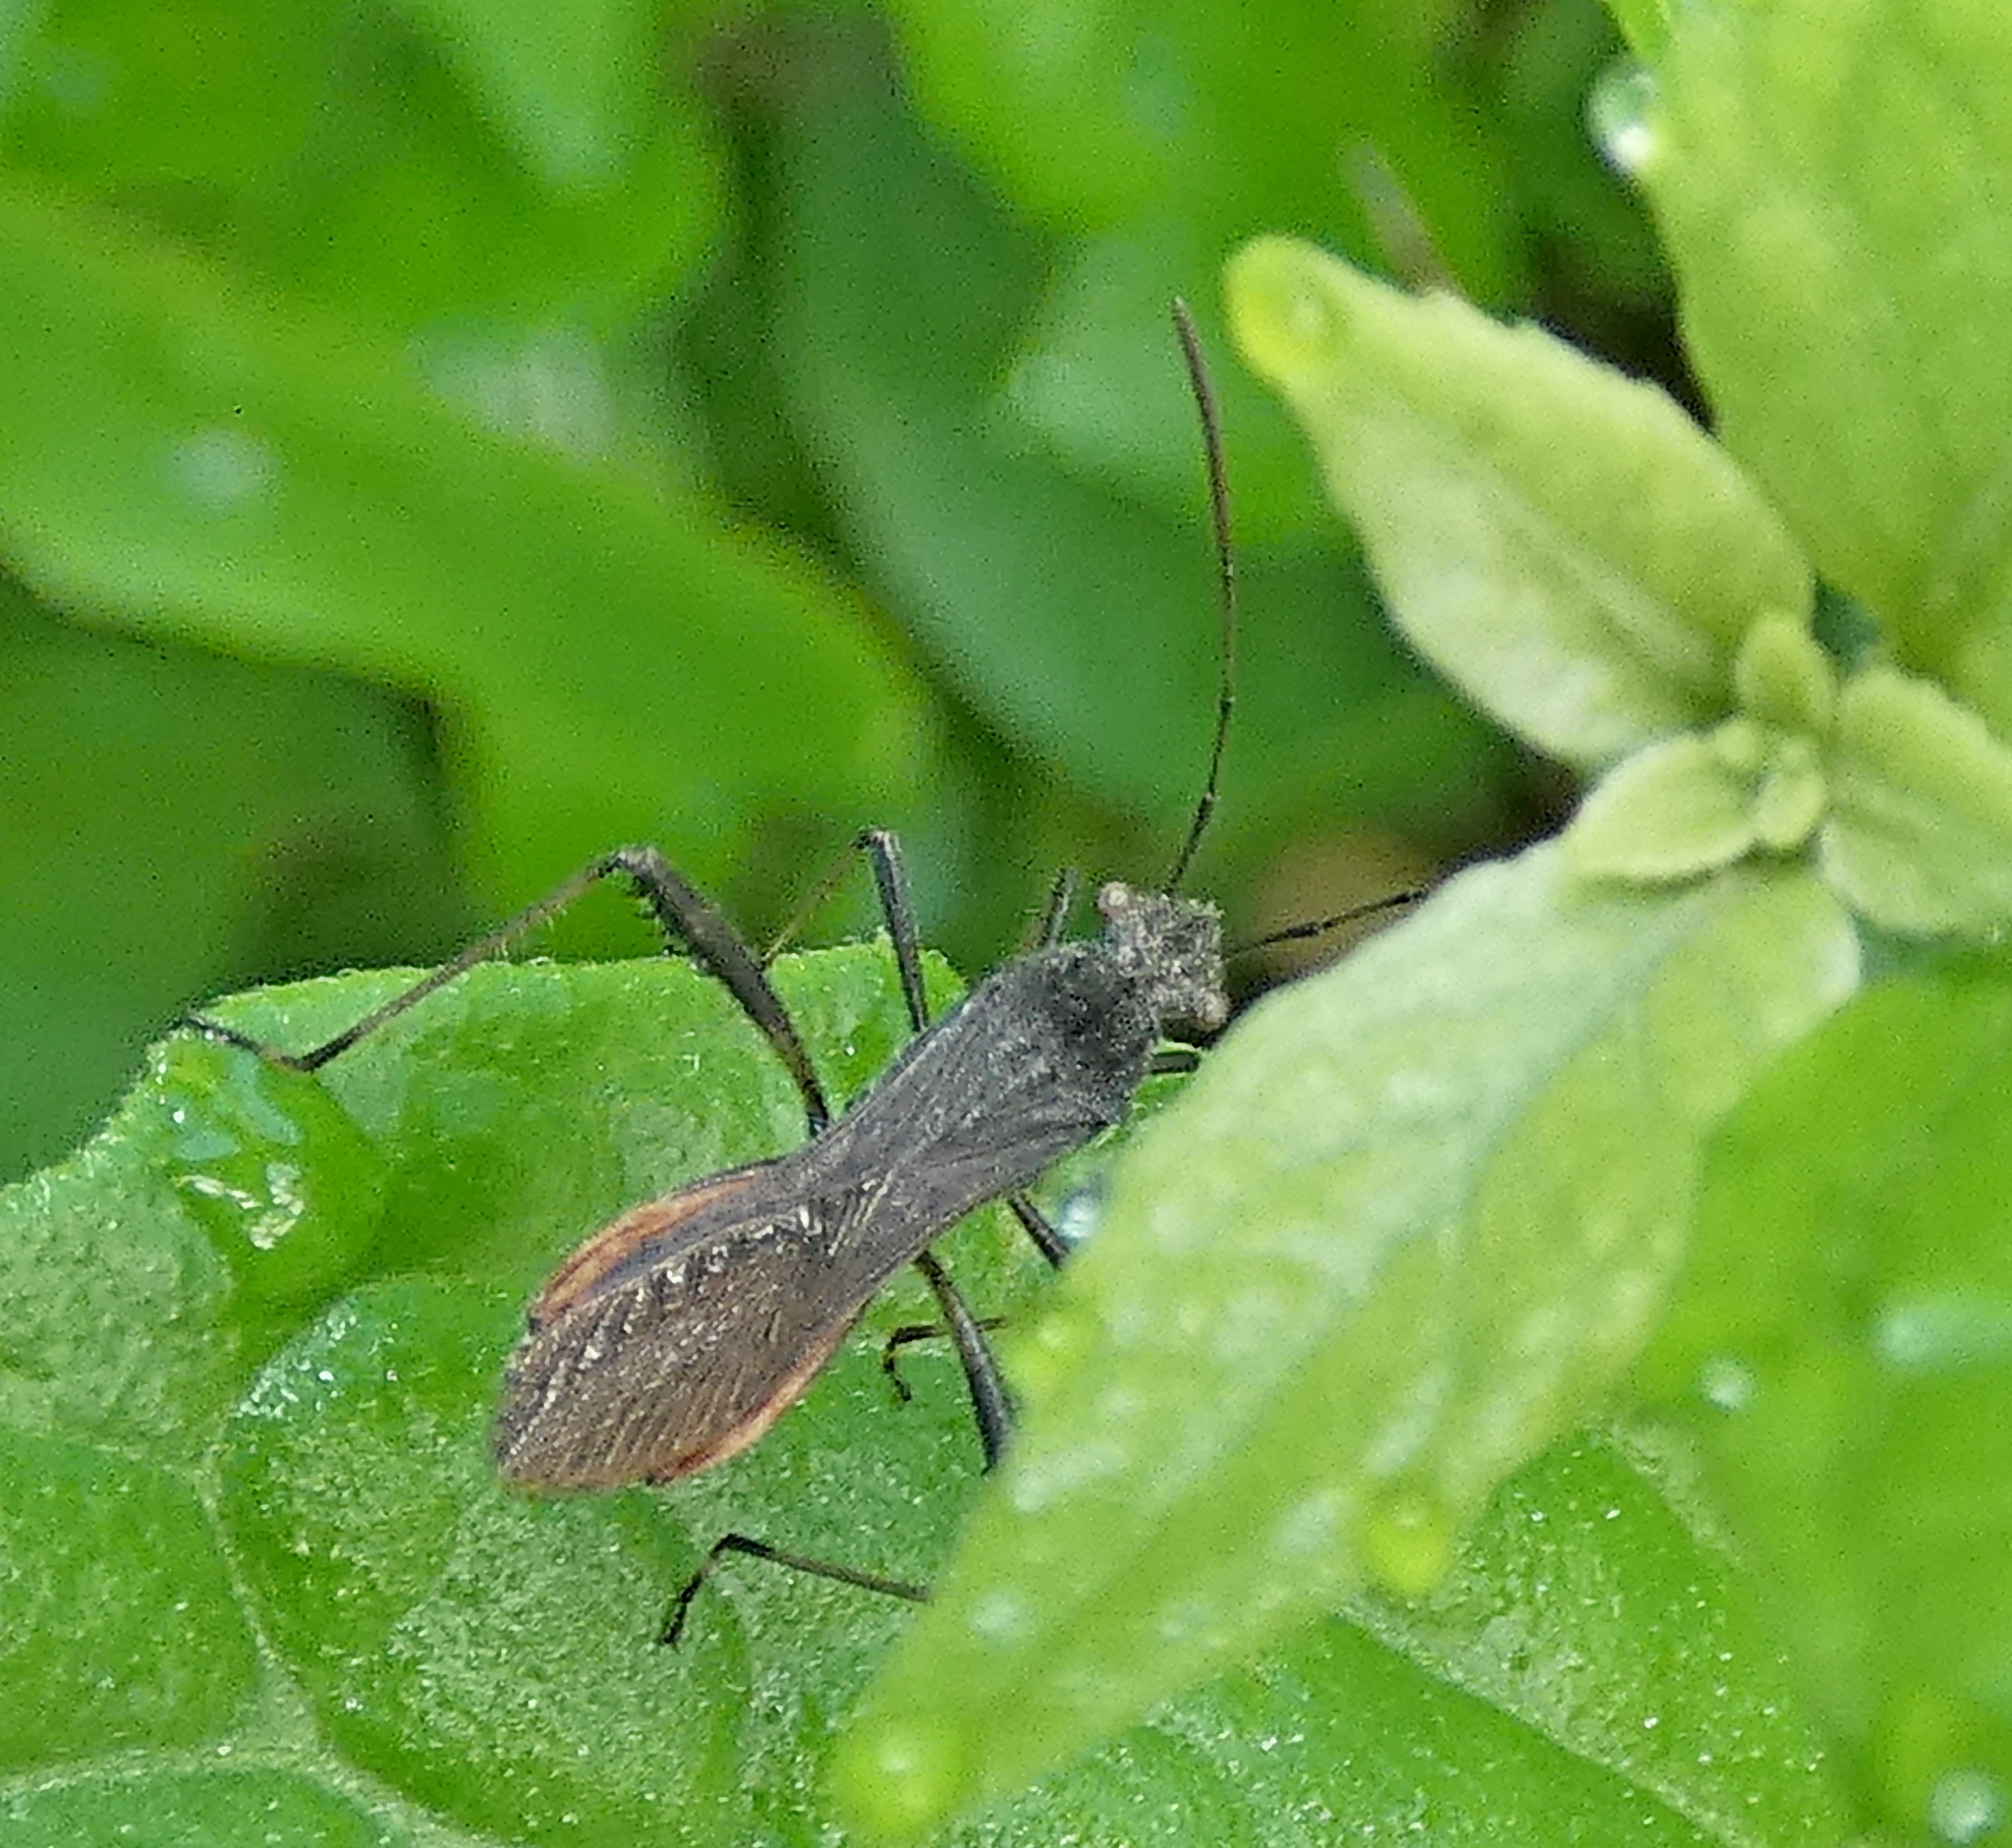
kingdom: Animalia
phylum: Arthropoda
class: Insecta
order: Hemiptera
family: Alydidae
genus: Neomegalotomus
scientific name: Neomegalotomus parvus
